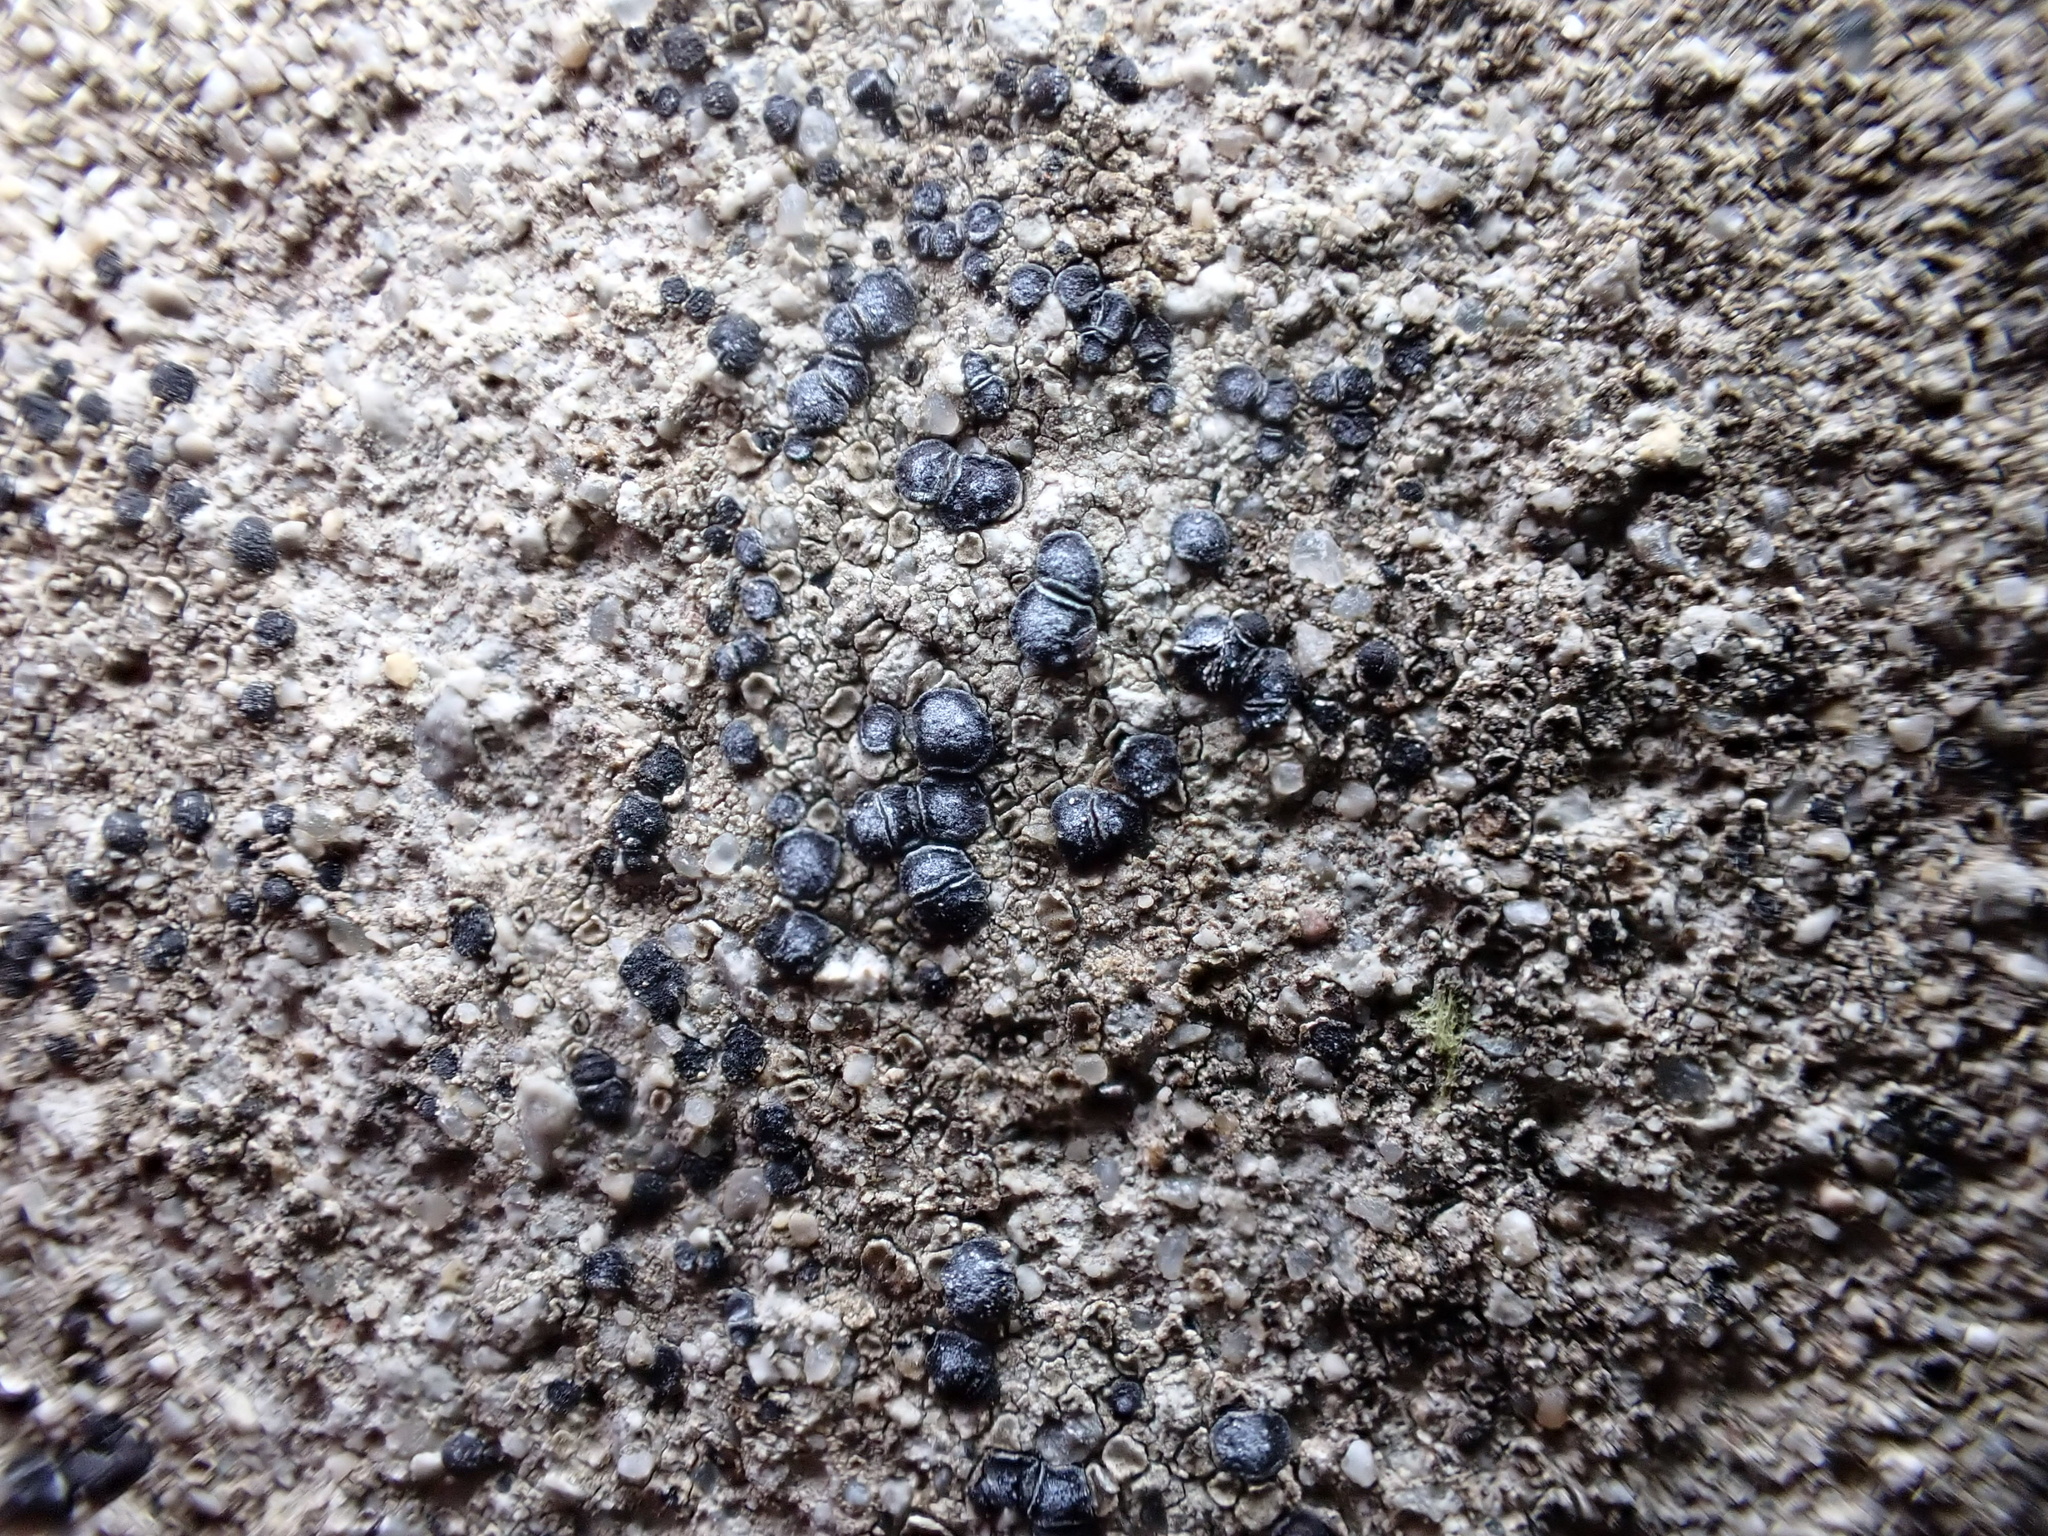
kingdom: Fungi
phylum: Ascomycota
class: Lecanoromycetes
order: Acarosporales
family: Acarosporaceae
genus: Sarcogyne
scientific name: Sarcogyne regularis
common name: Frosted grain-spored lichen
